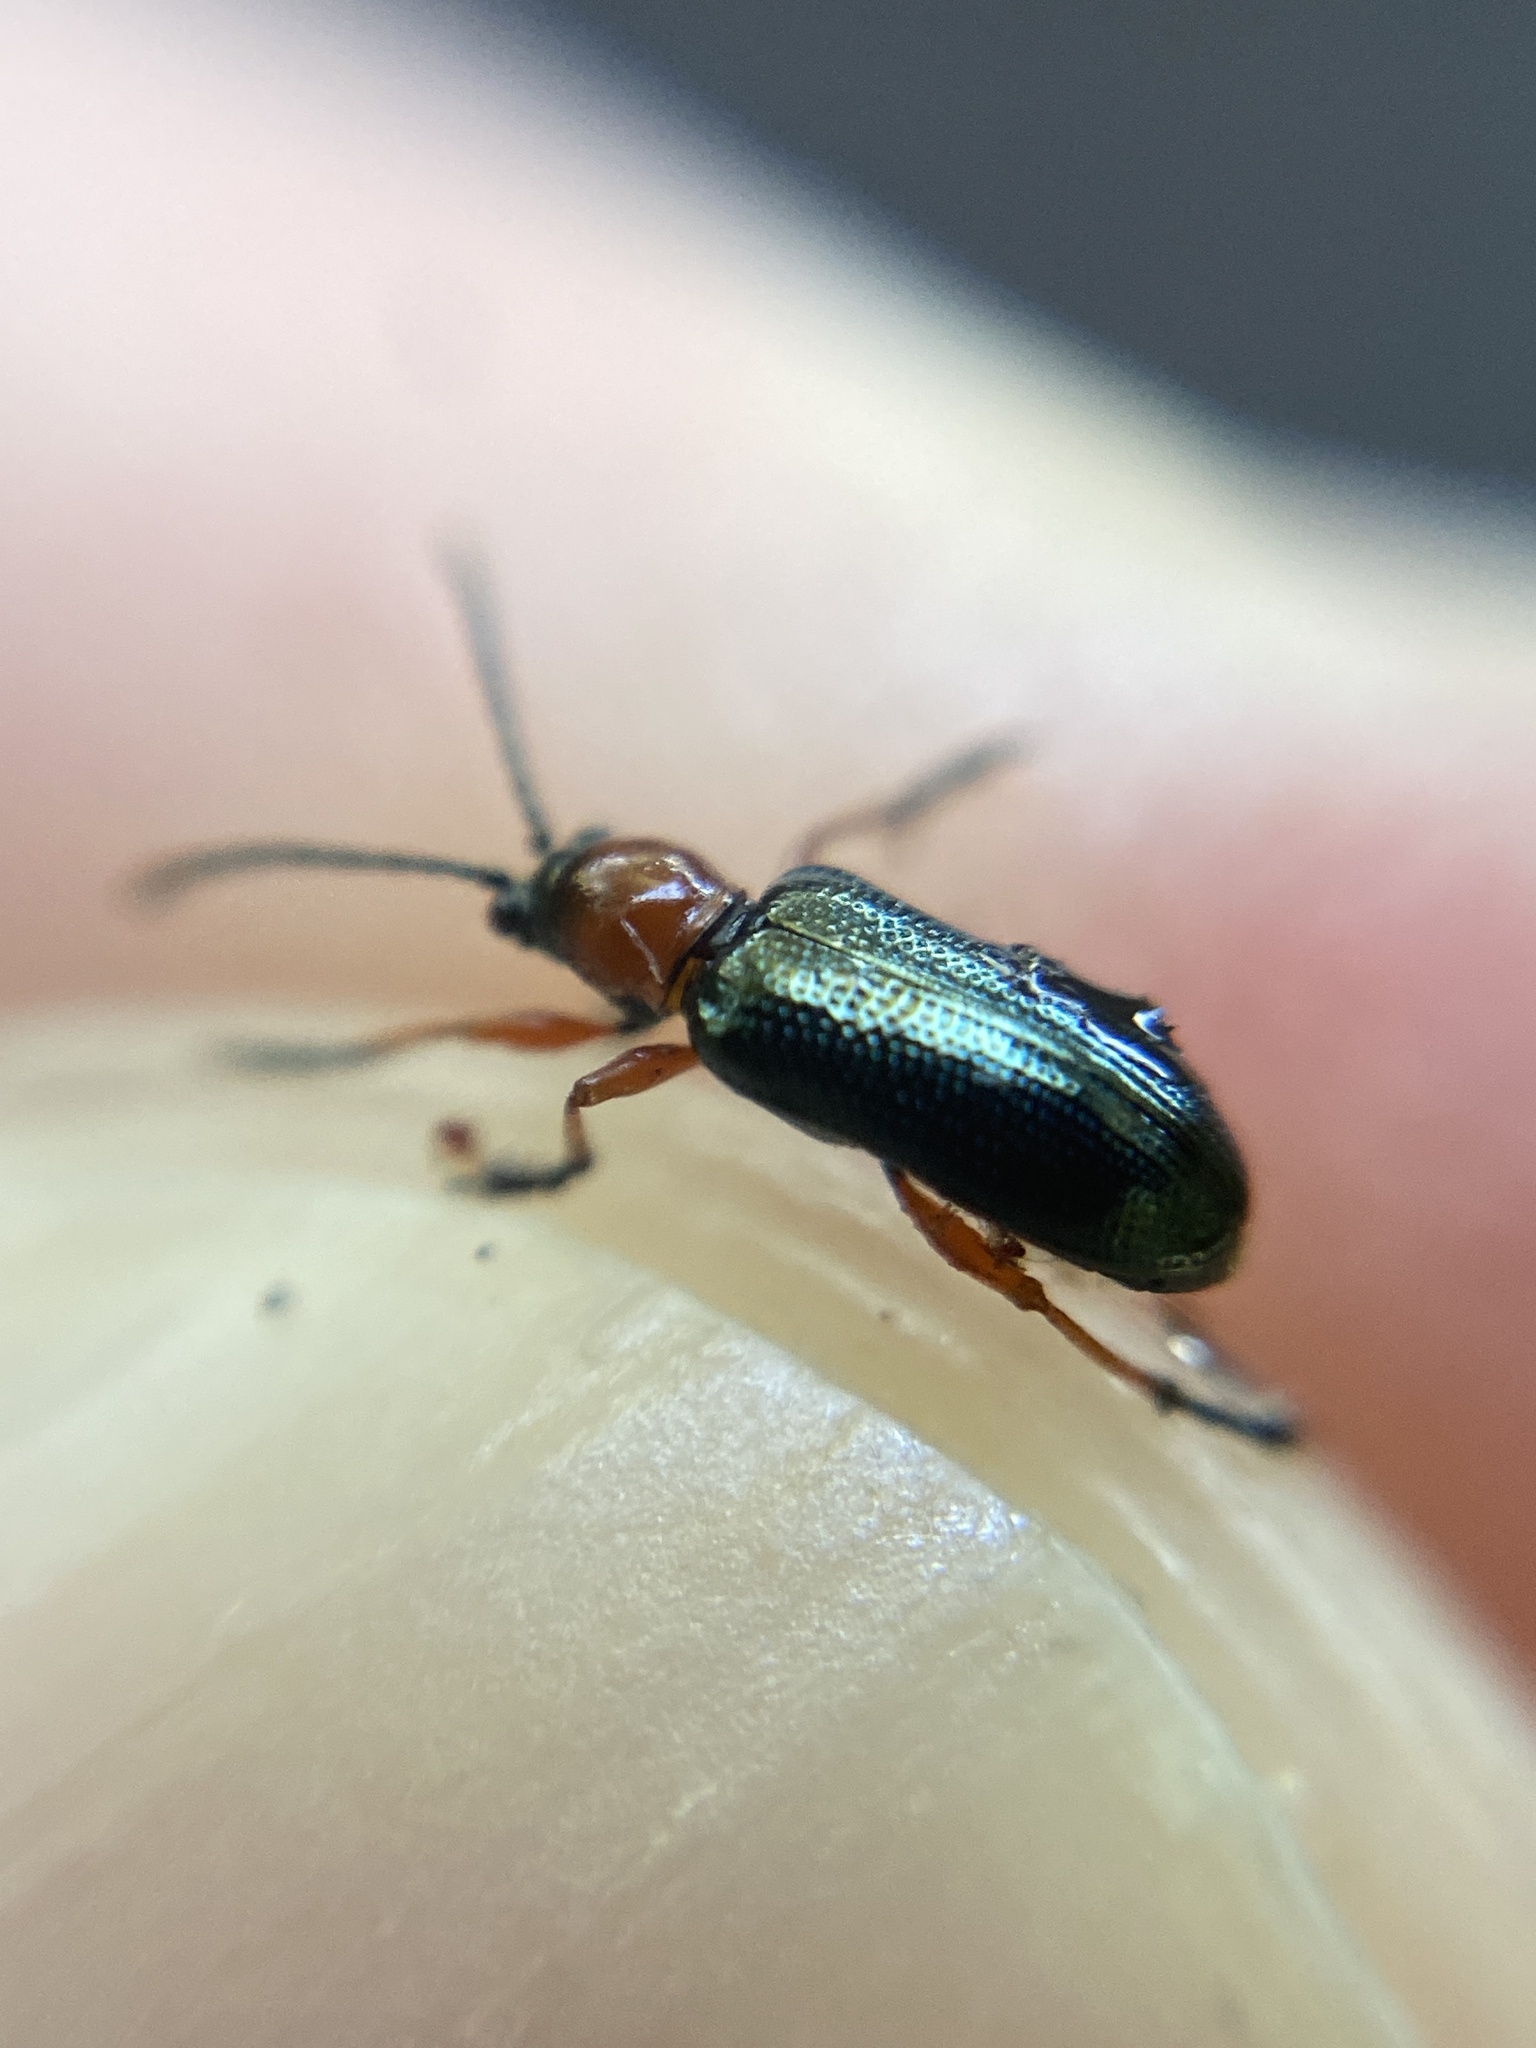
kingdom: Animalia
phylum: Arthropoda
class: Insecta
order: Coleoptera
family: Chrysomelidae
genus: Oulema
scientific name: Oulema
